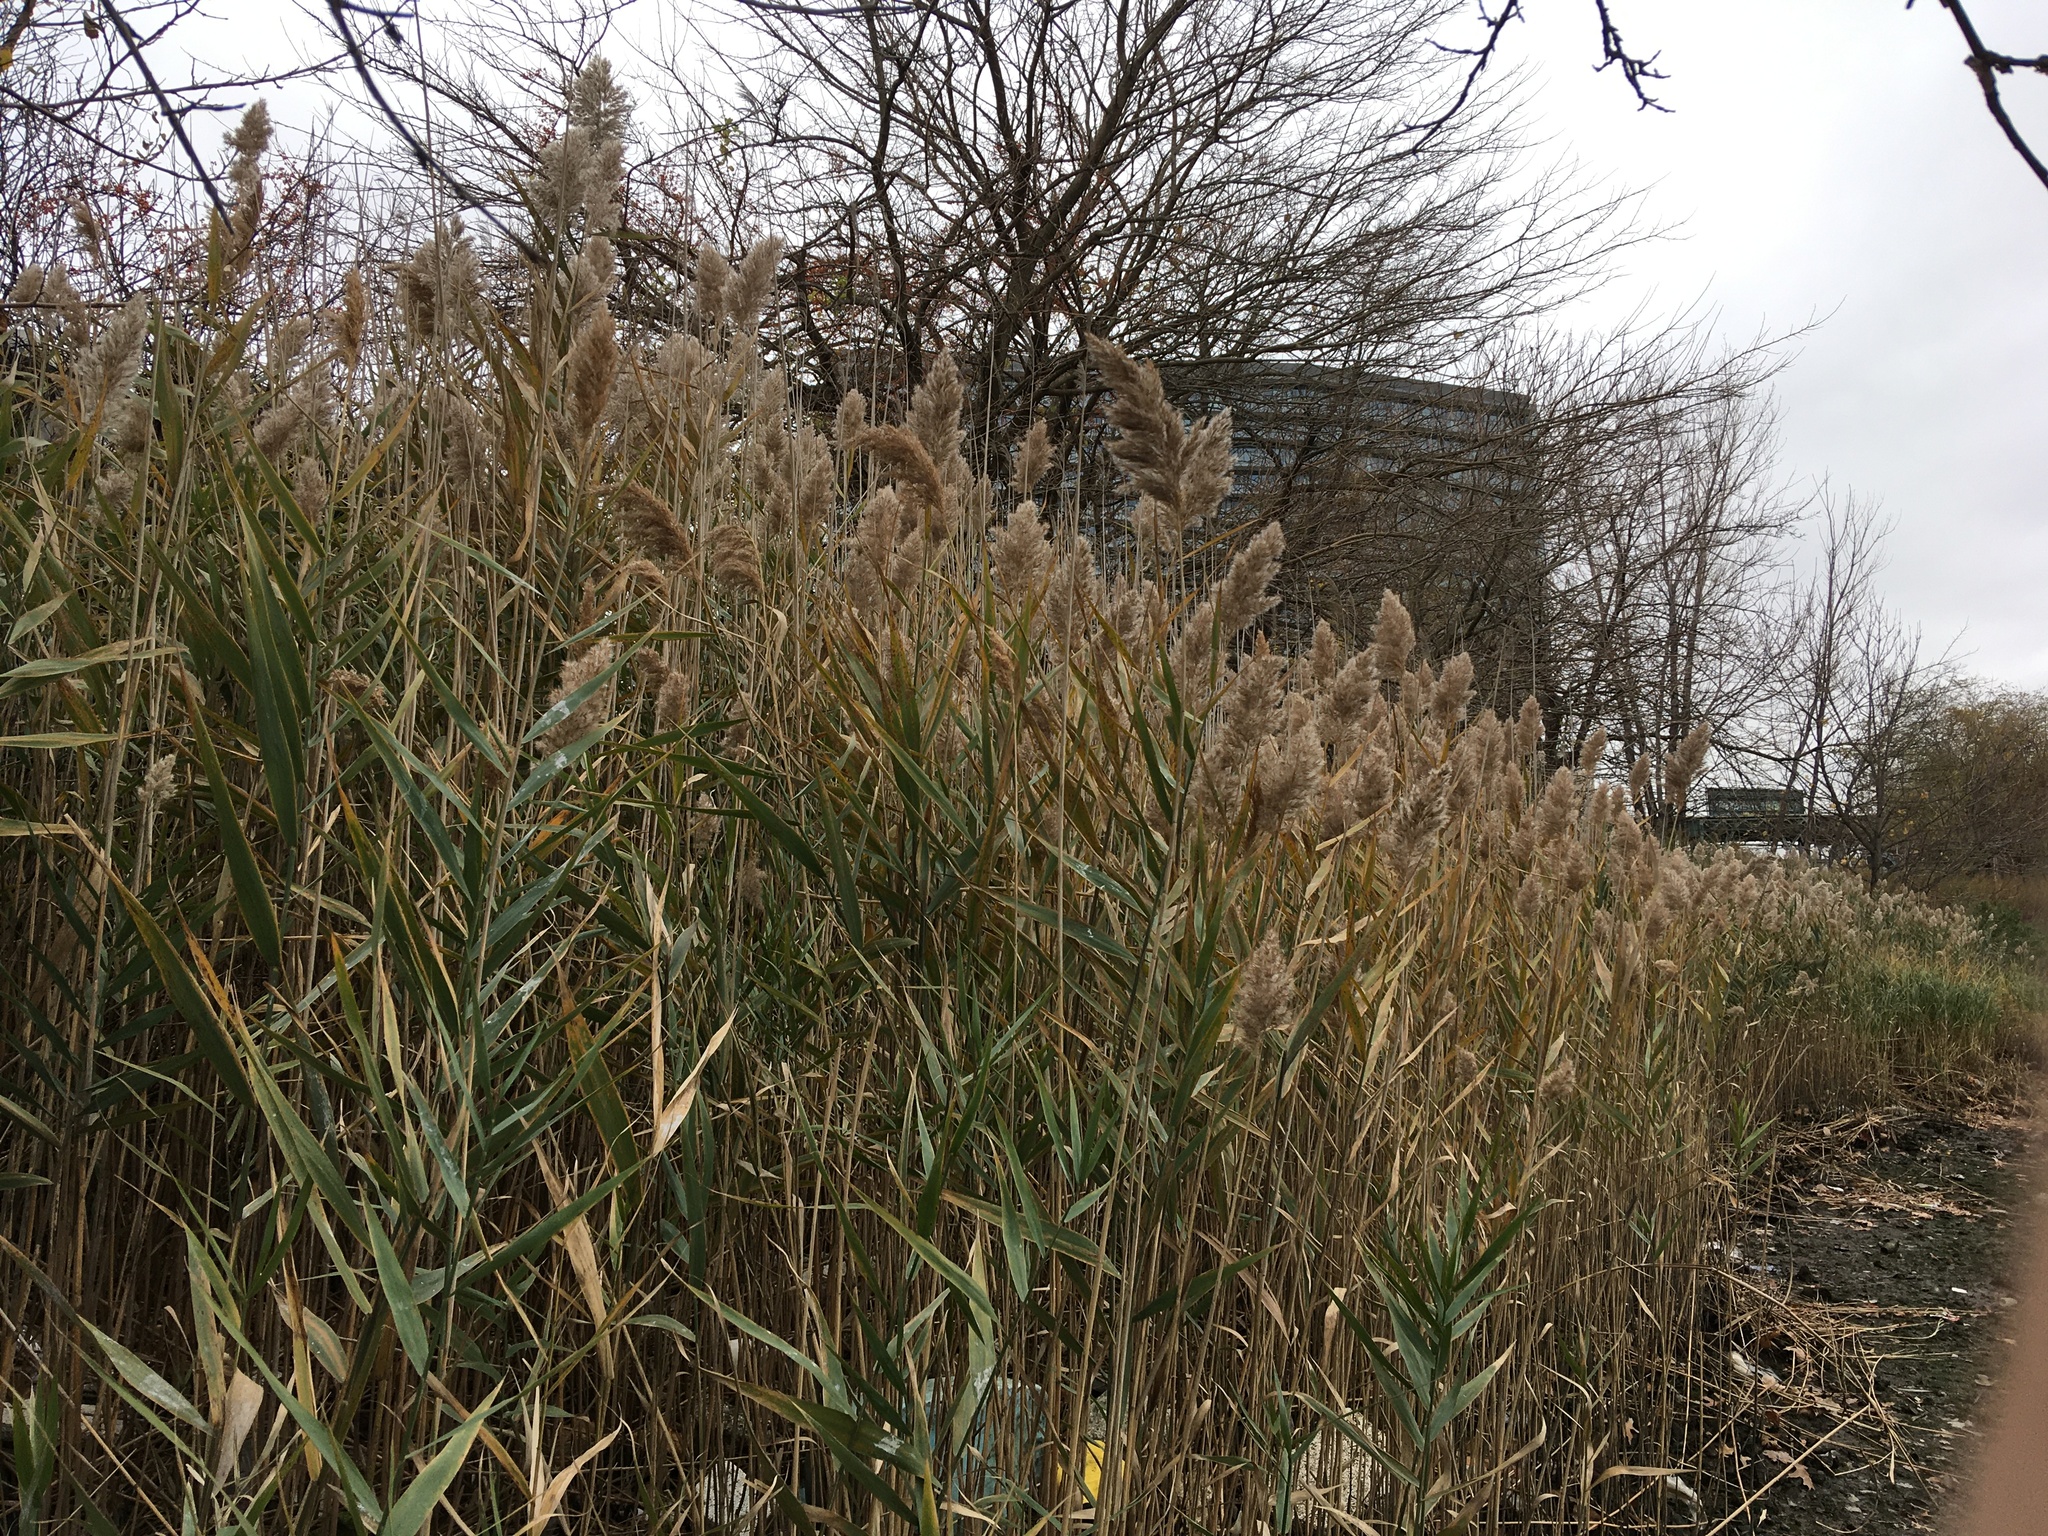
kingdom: Plantae
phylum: Tracheophyta
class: Liliopsida
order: Poales
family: Poaceae
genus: Phragmites
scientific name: Phragmites australis
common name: Common reed
